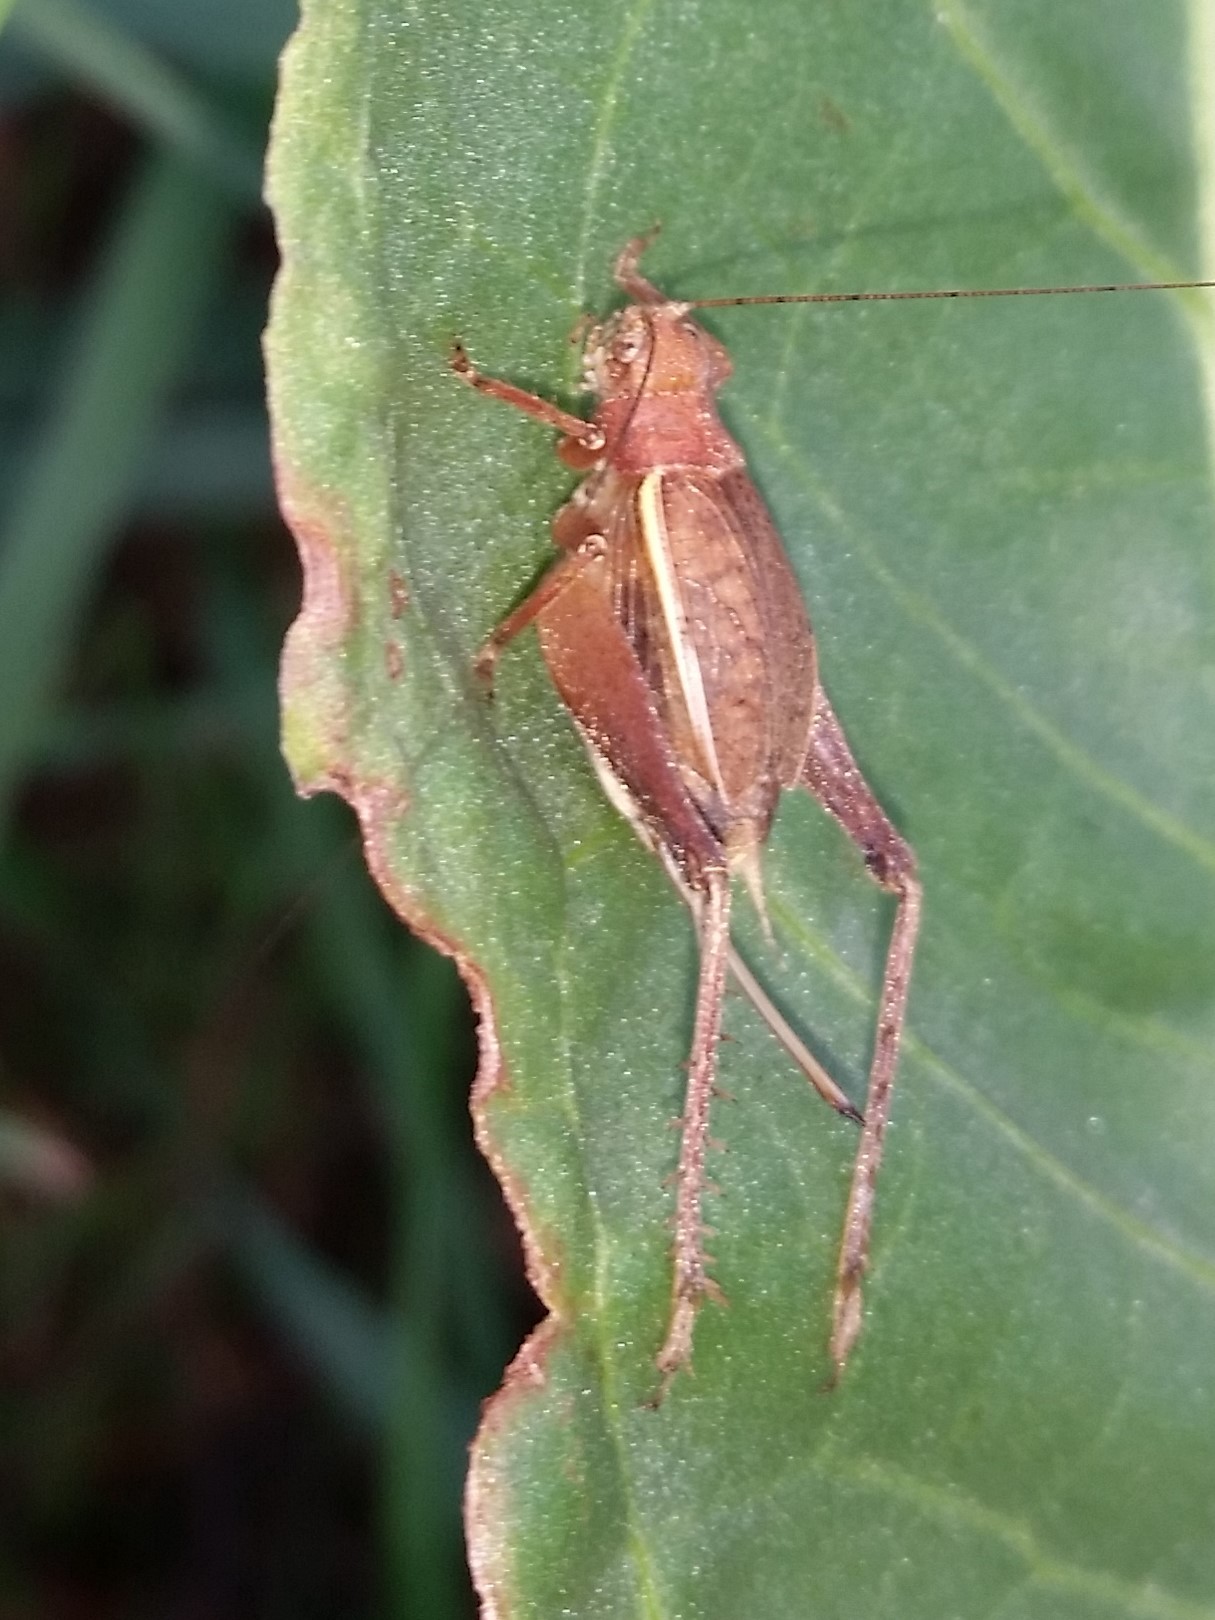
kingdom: Animalia
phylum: Arthropoda
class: Insecta
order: Orthoptera
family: Gryllidae
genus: Hapithus
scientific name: Hapithus agitator
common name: Restless bush cricket
